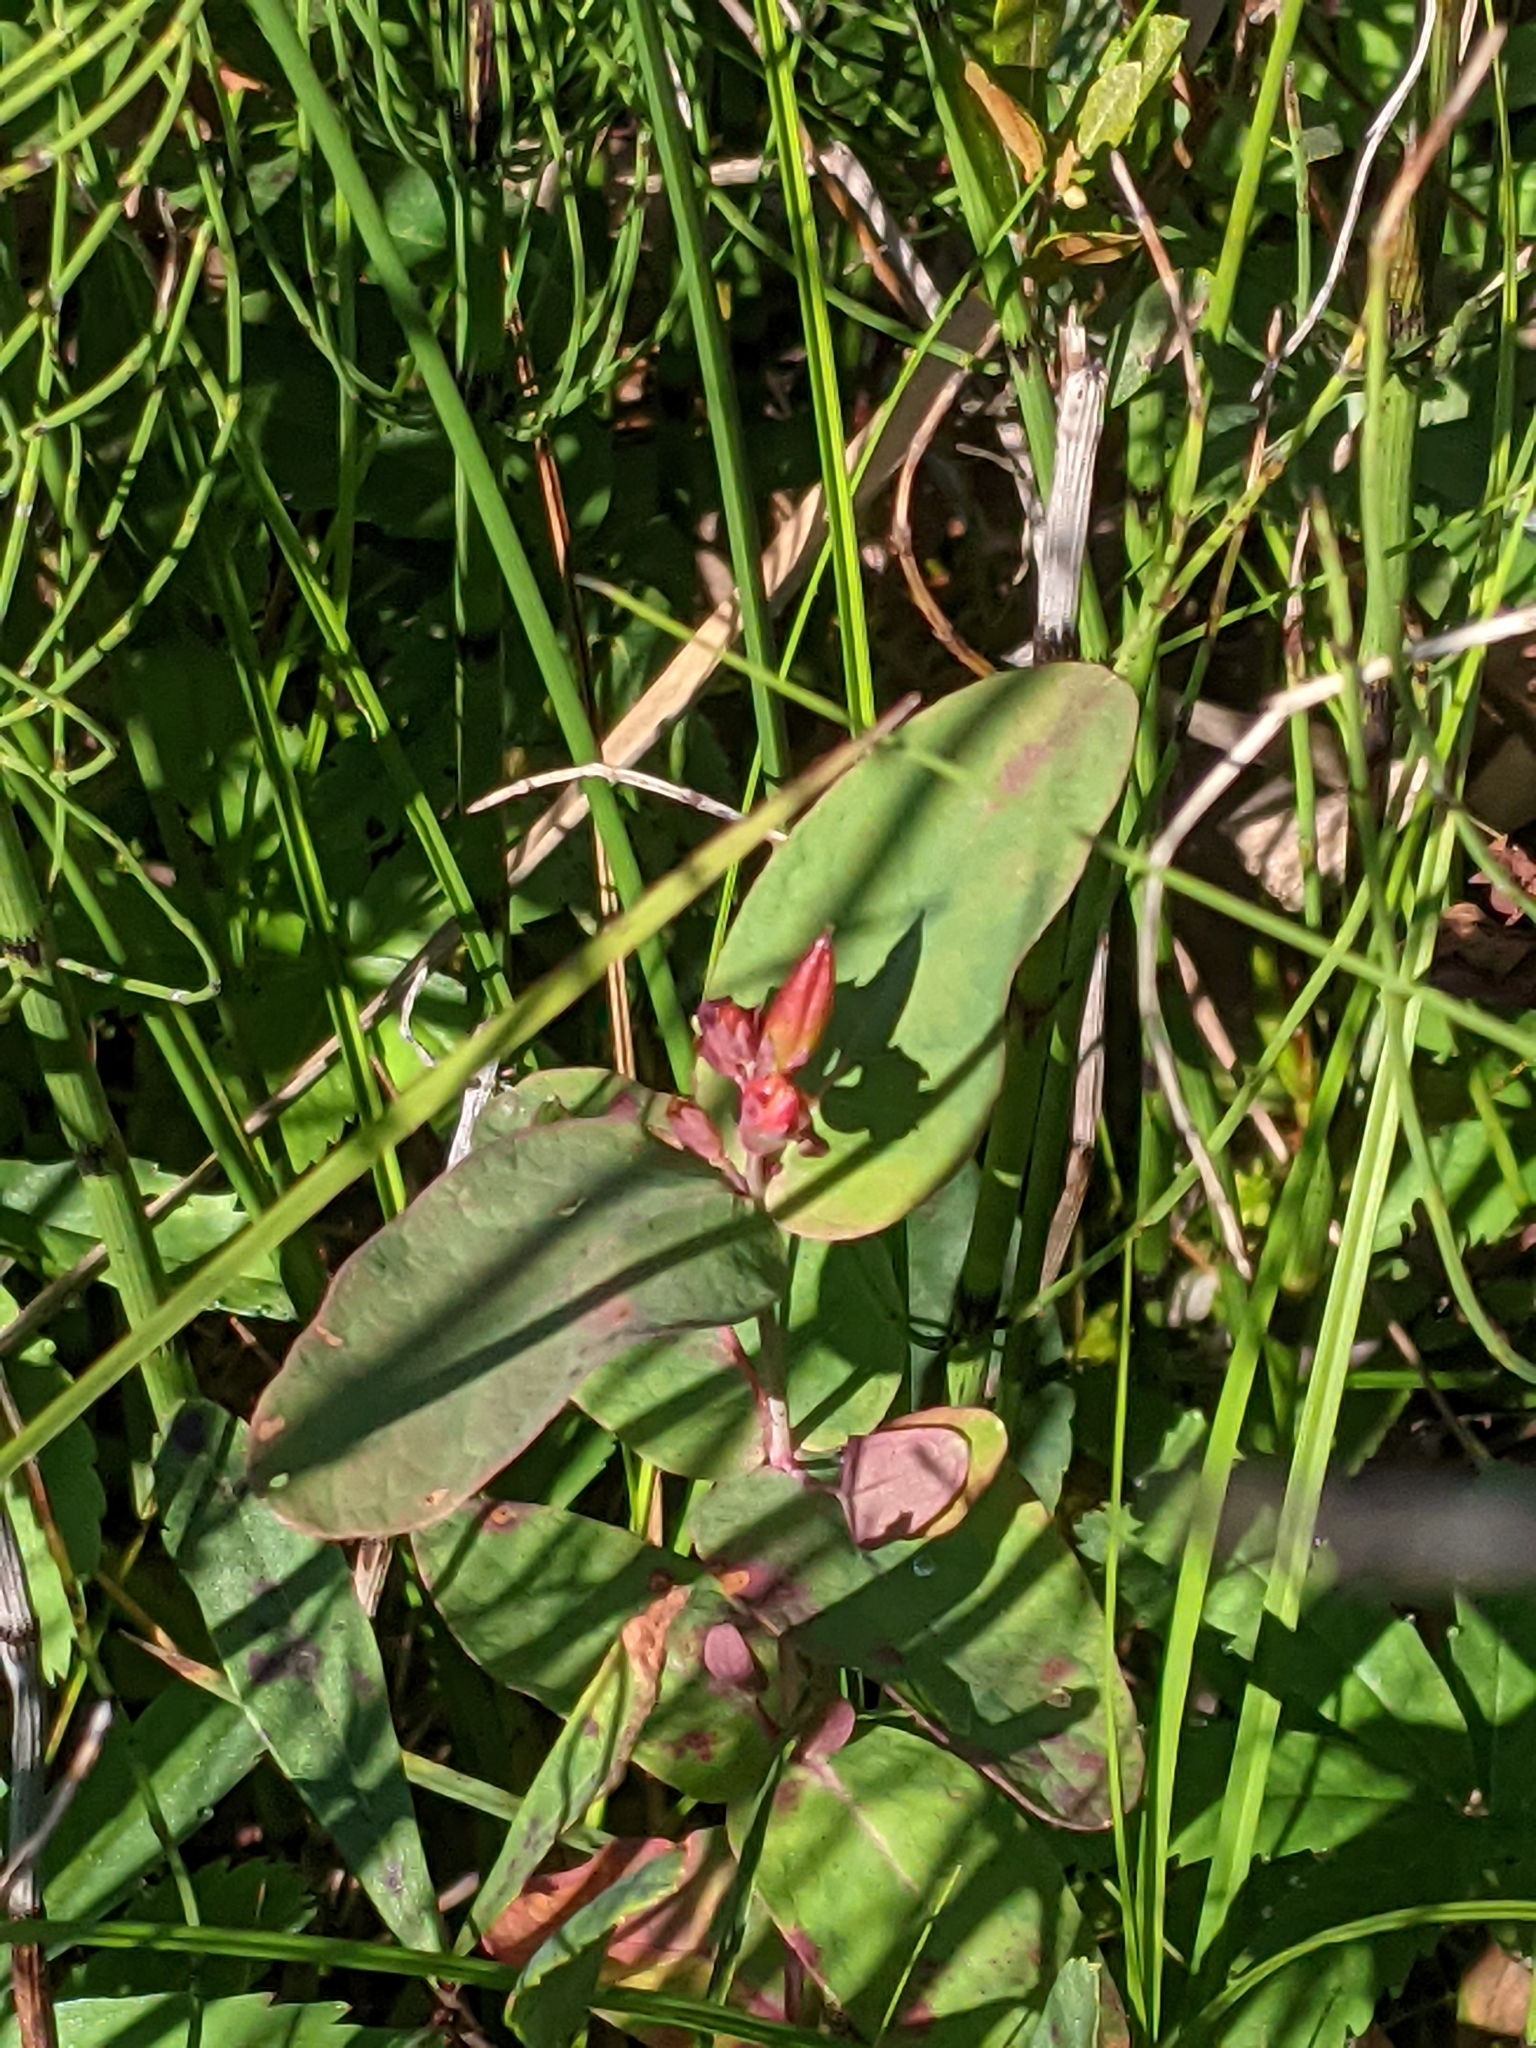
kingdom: Plantae
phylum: Tracheophyta
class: Magnoliopsida
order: Malpighiales
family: Hypericaceae
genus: Triadenum
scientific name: Triadenum fraseri
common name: Fraser's marsh st. johnswort
